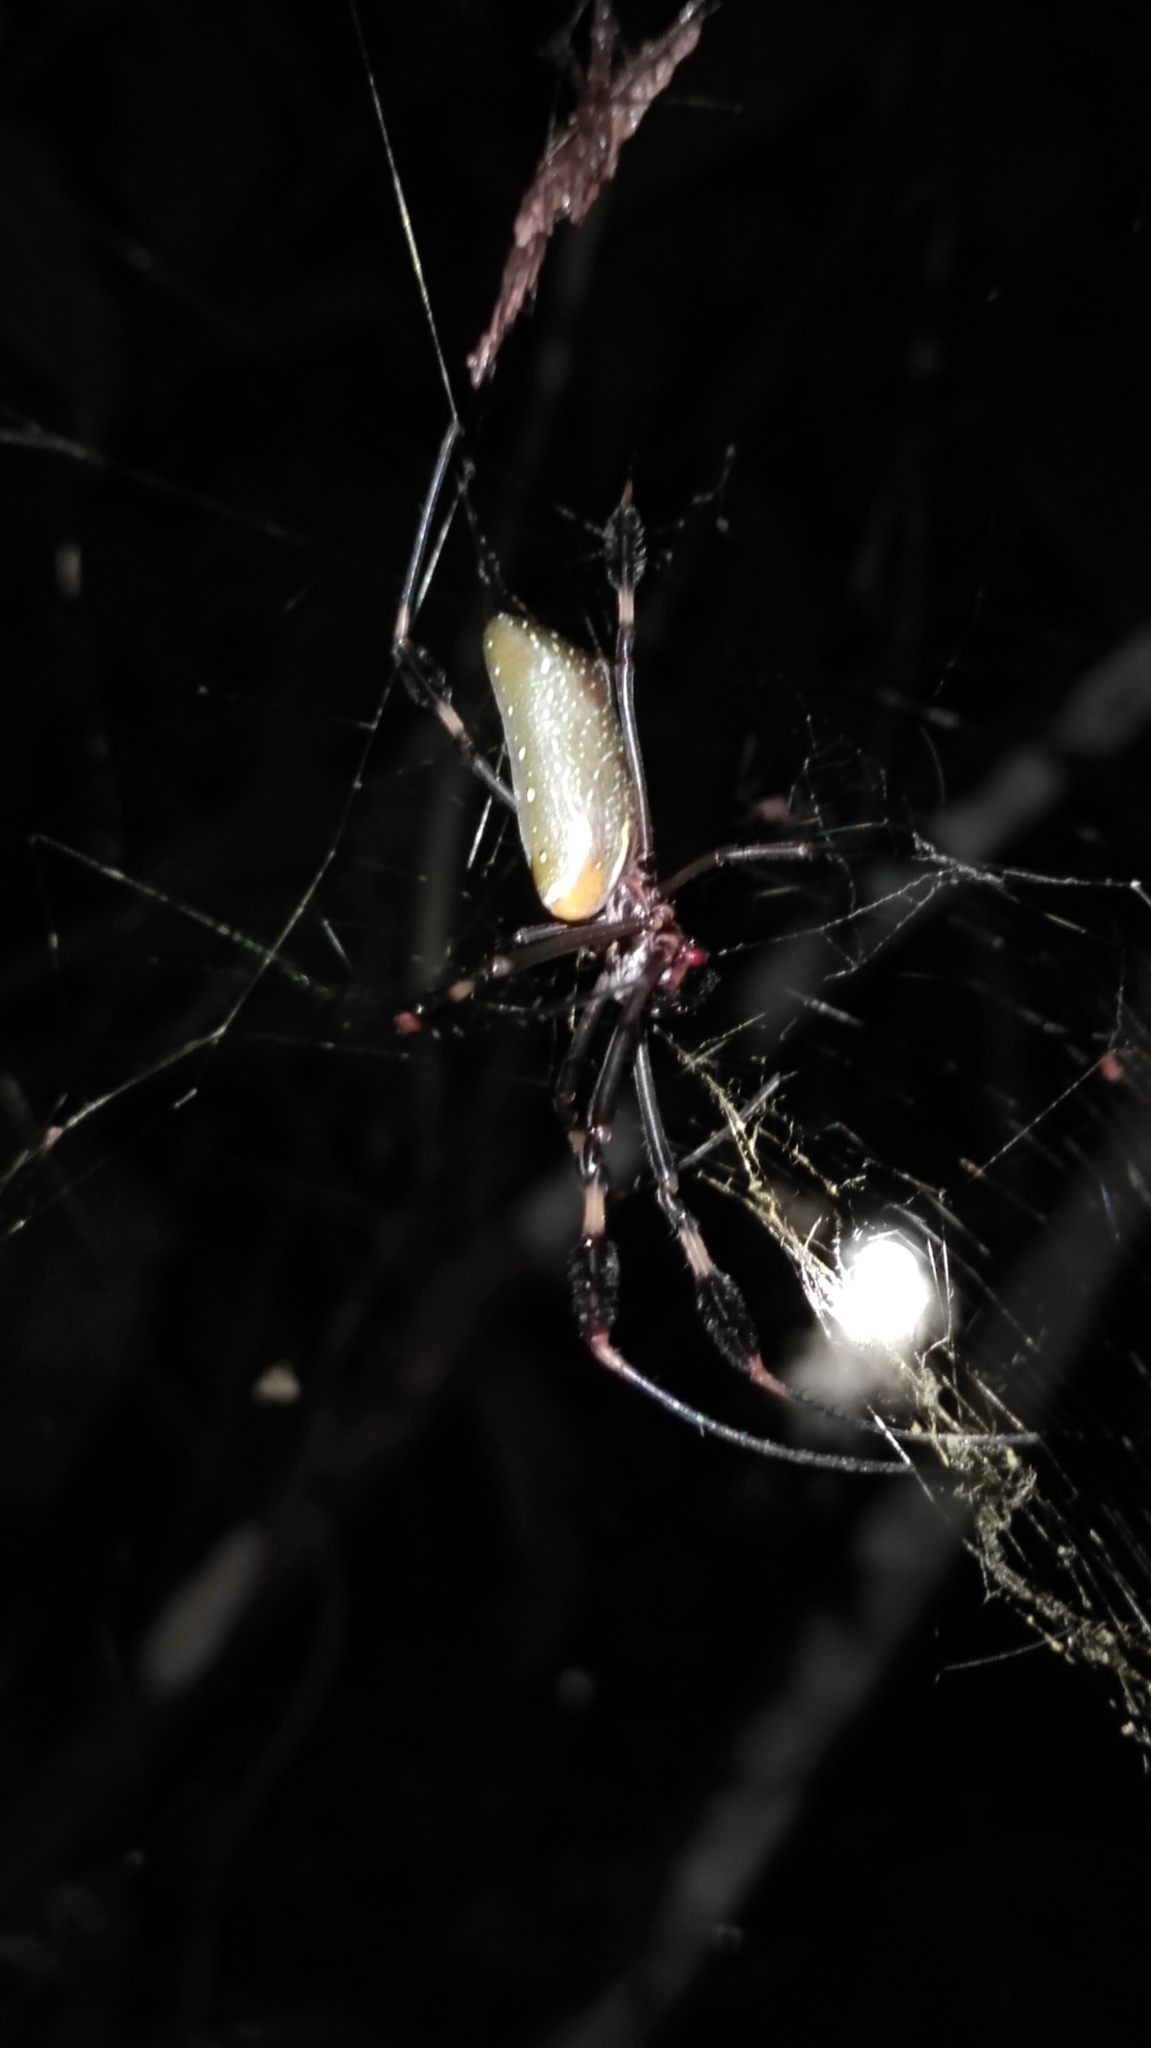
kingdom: Animalia
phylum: Arthropoda
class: Arachnida
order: Araneae
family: Araneidae
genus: Trichonephila
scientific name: Trichonephila clavipes
